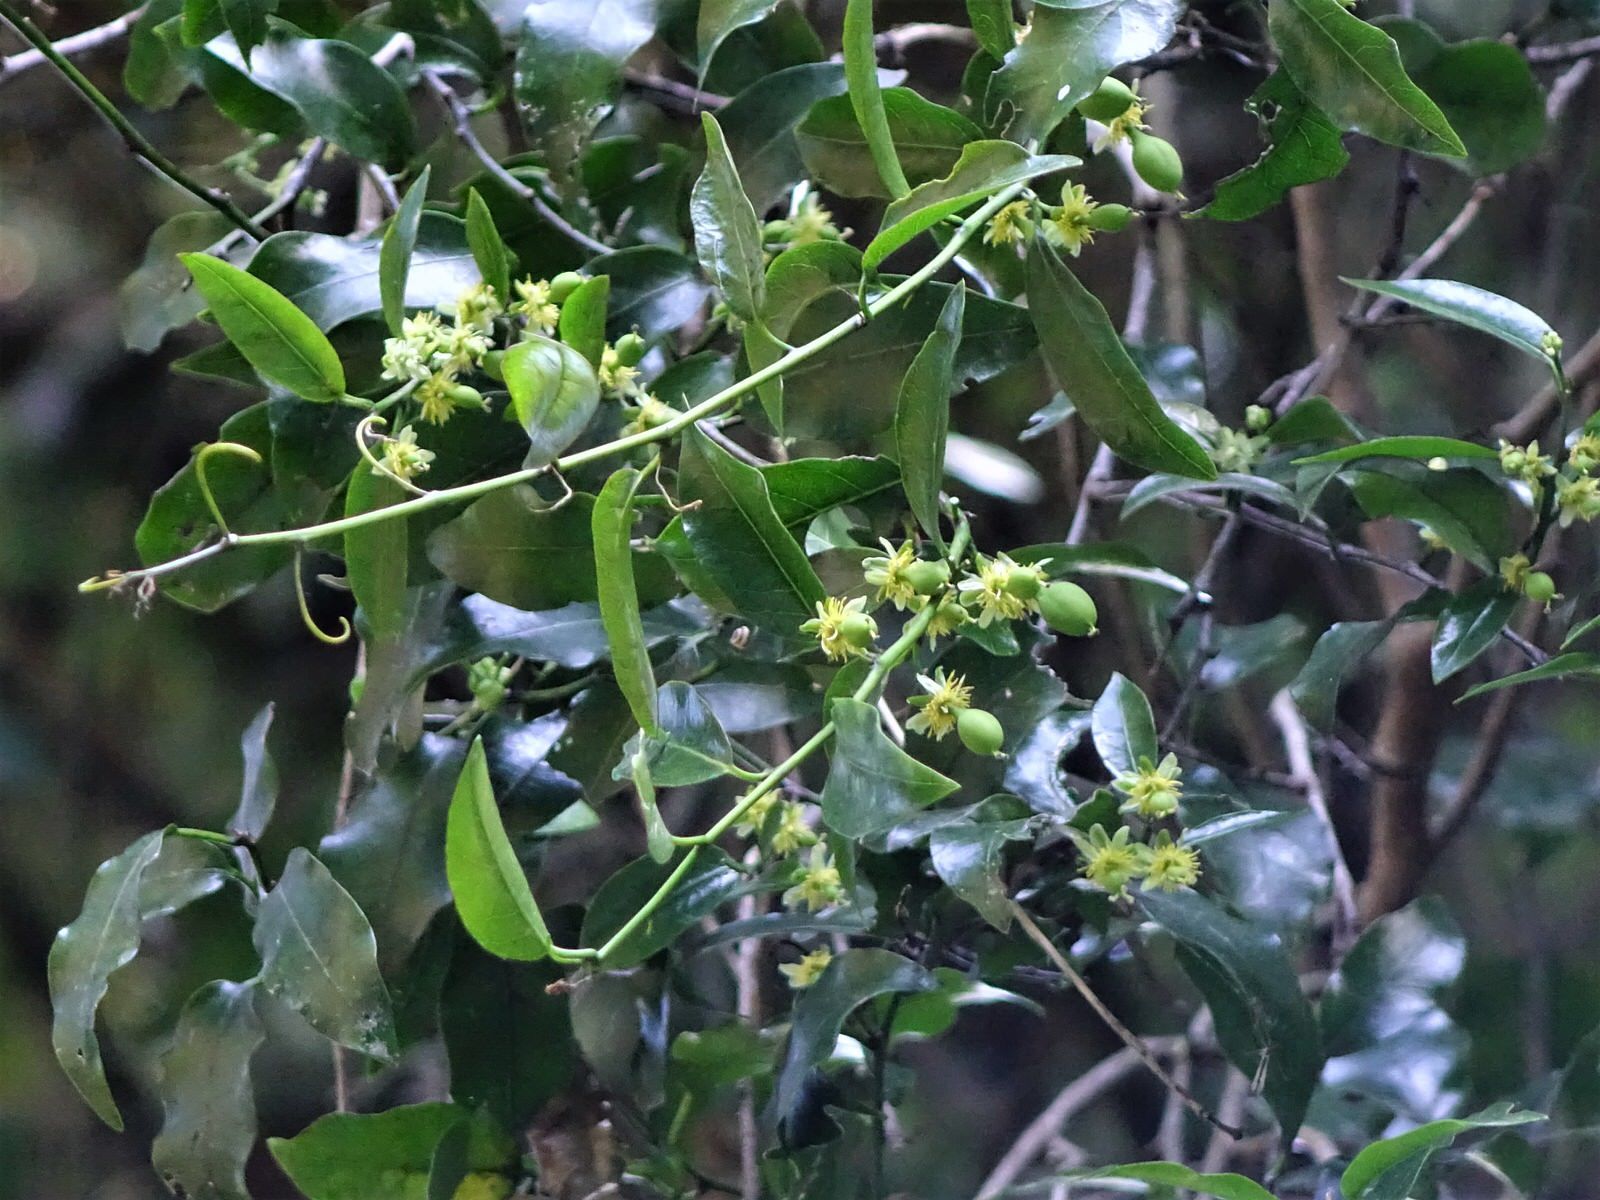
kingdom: Plantae
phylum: Tracheophyta
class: Magnoliopsida
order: Malpighiales
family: Passifloraceae
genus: Passiflora
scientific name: Passiflora tetrandra
